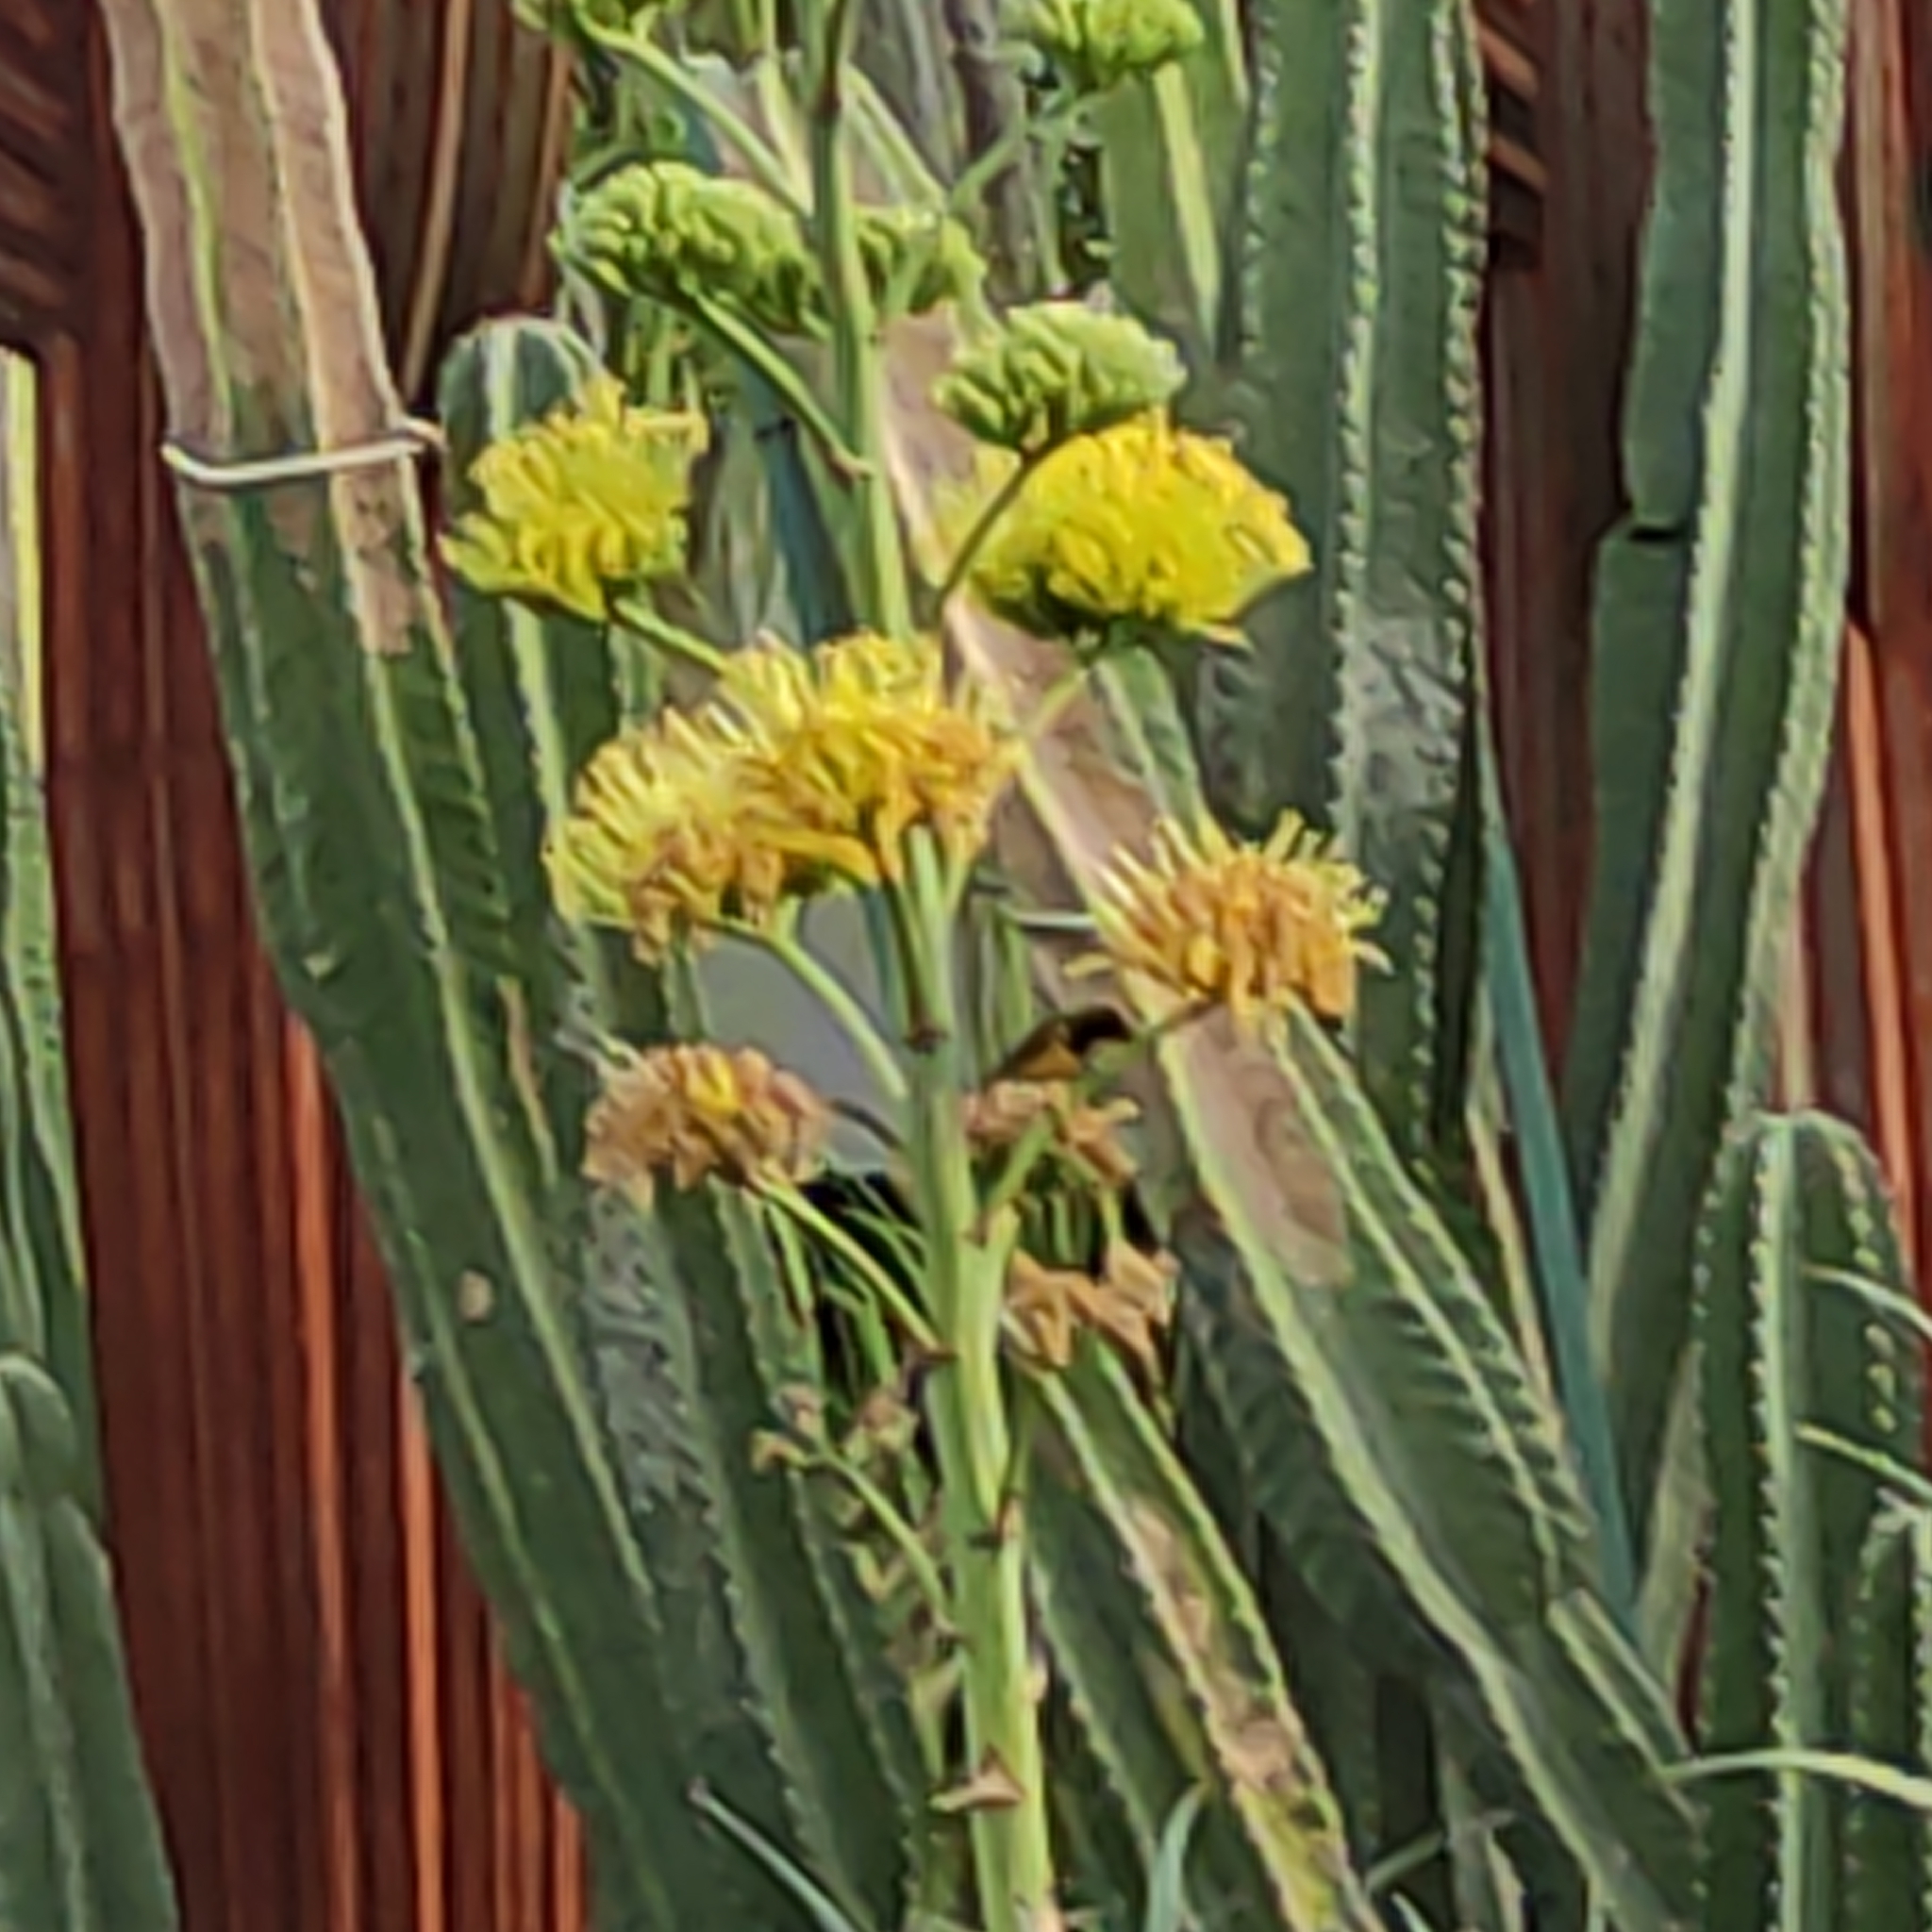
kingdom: Animalia
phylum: Chordata
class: Aves
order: Passeriformes
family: Nectariniidae
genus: Cinnyris
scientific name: Cinnyris
